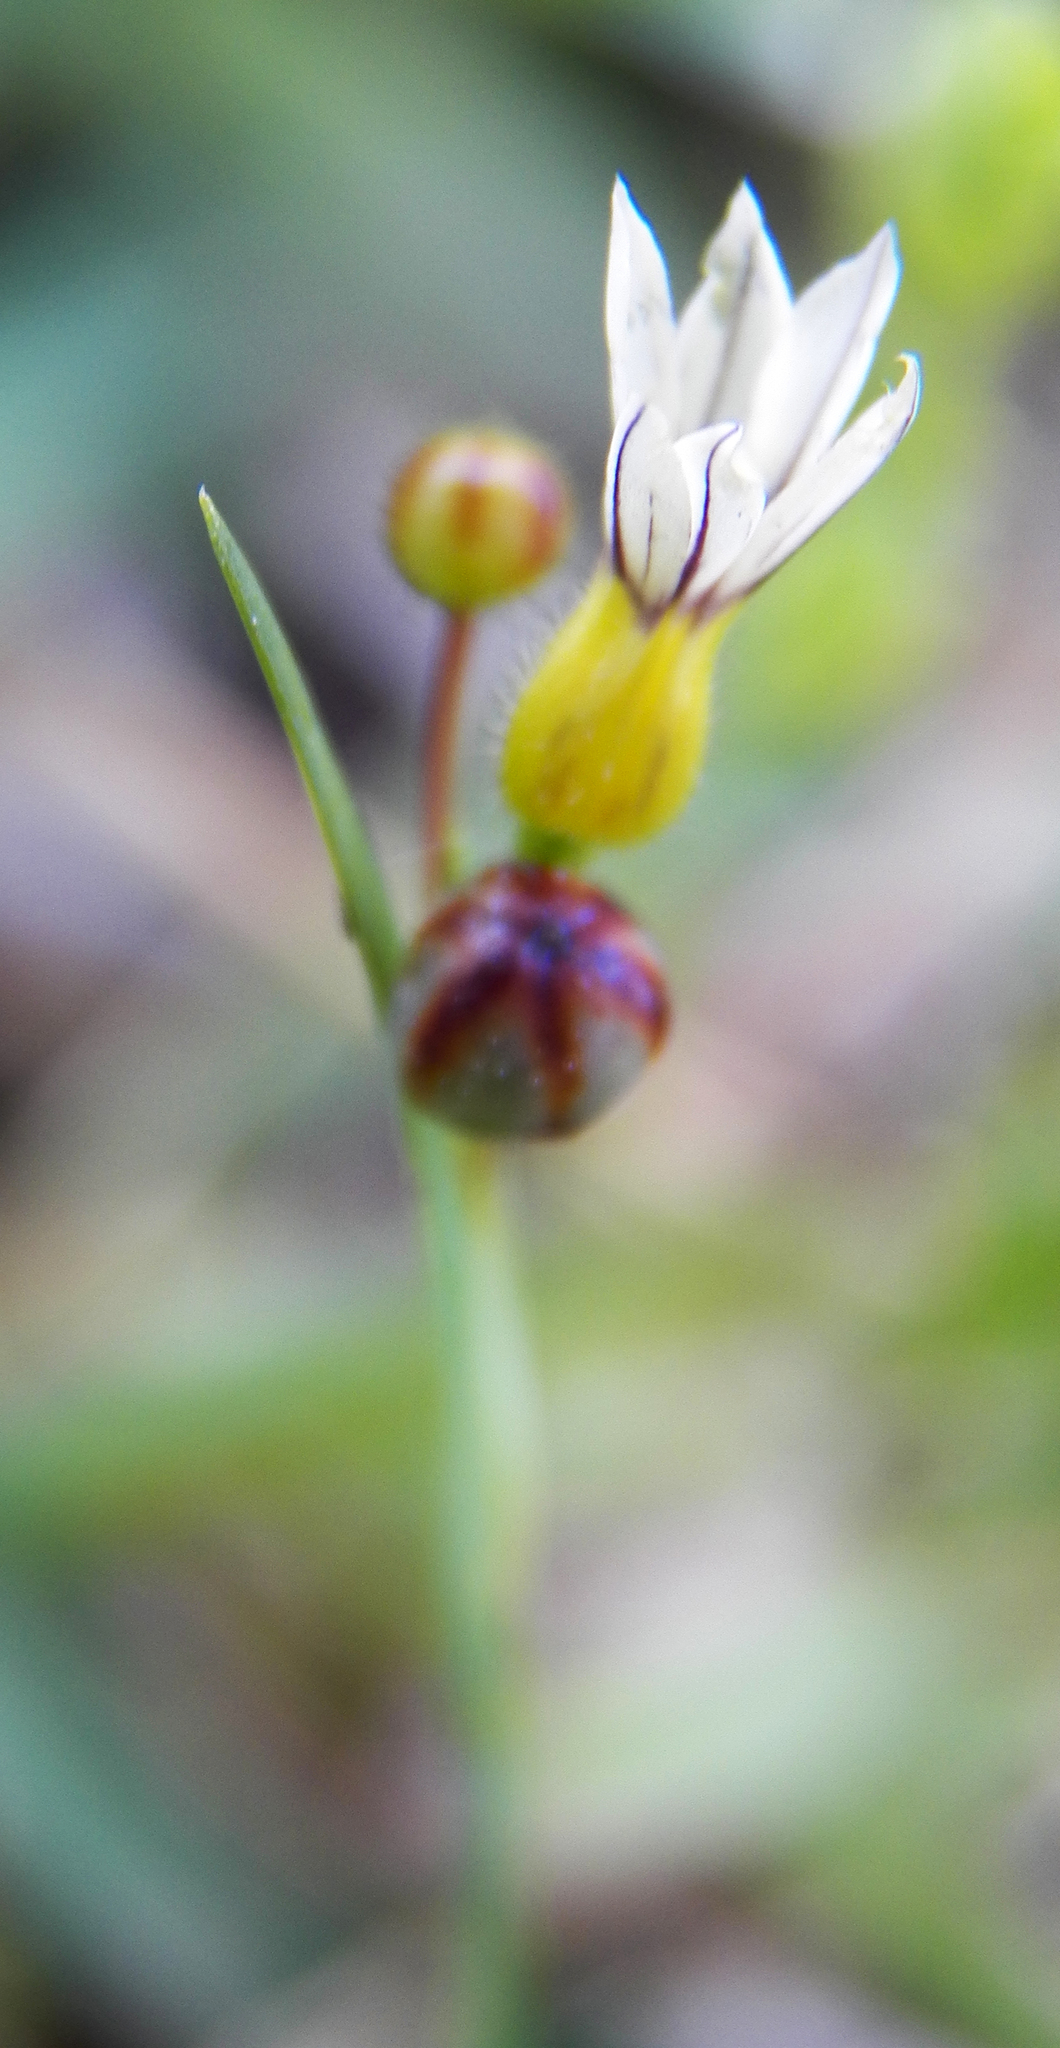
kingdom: Plantae
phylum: Tracheophyta
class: Liliopsida
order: Asparagales
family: Iridaceae
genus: Sisyrinchium
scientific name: Sisyrinchium micranthum
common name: Bermuda pigroot
